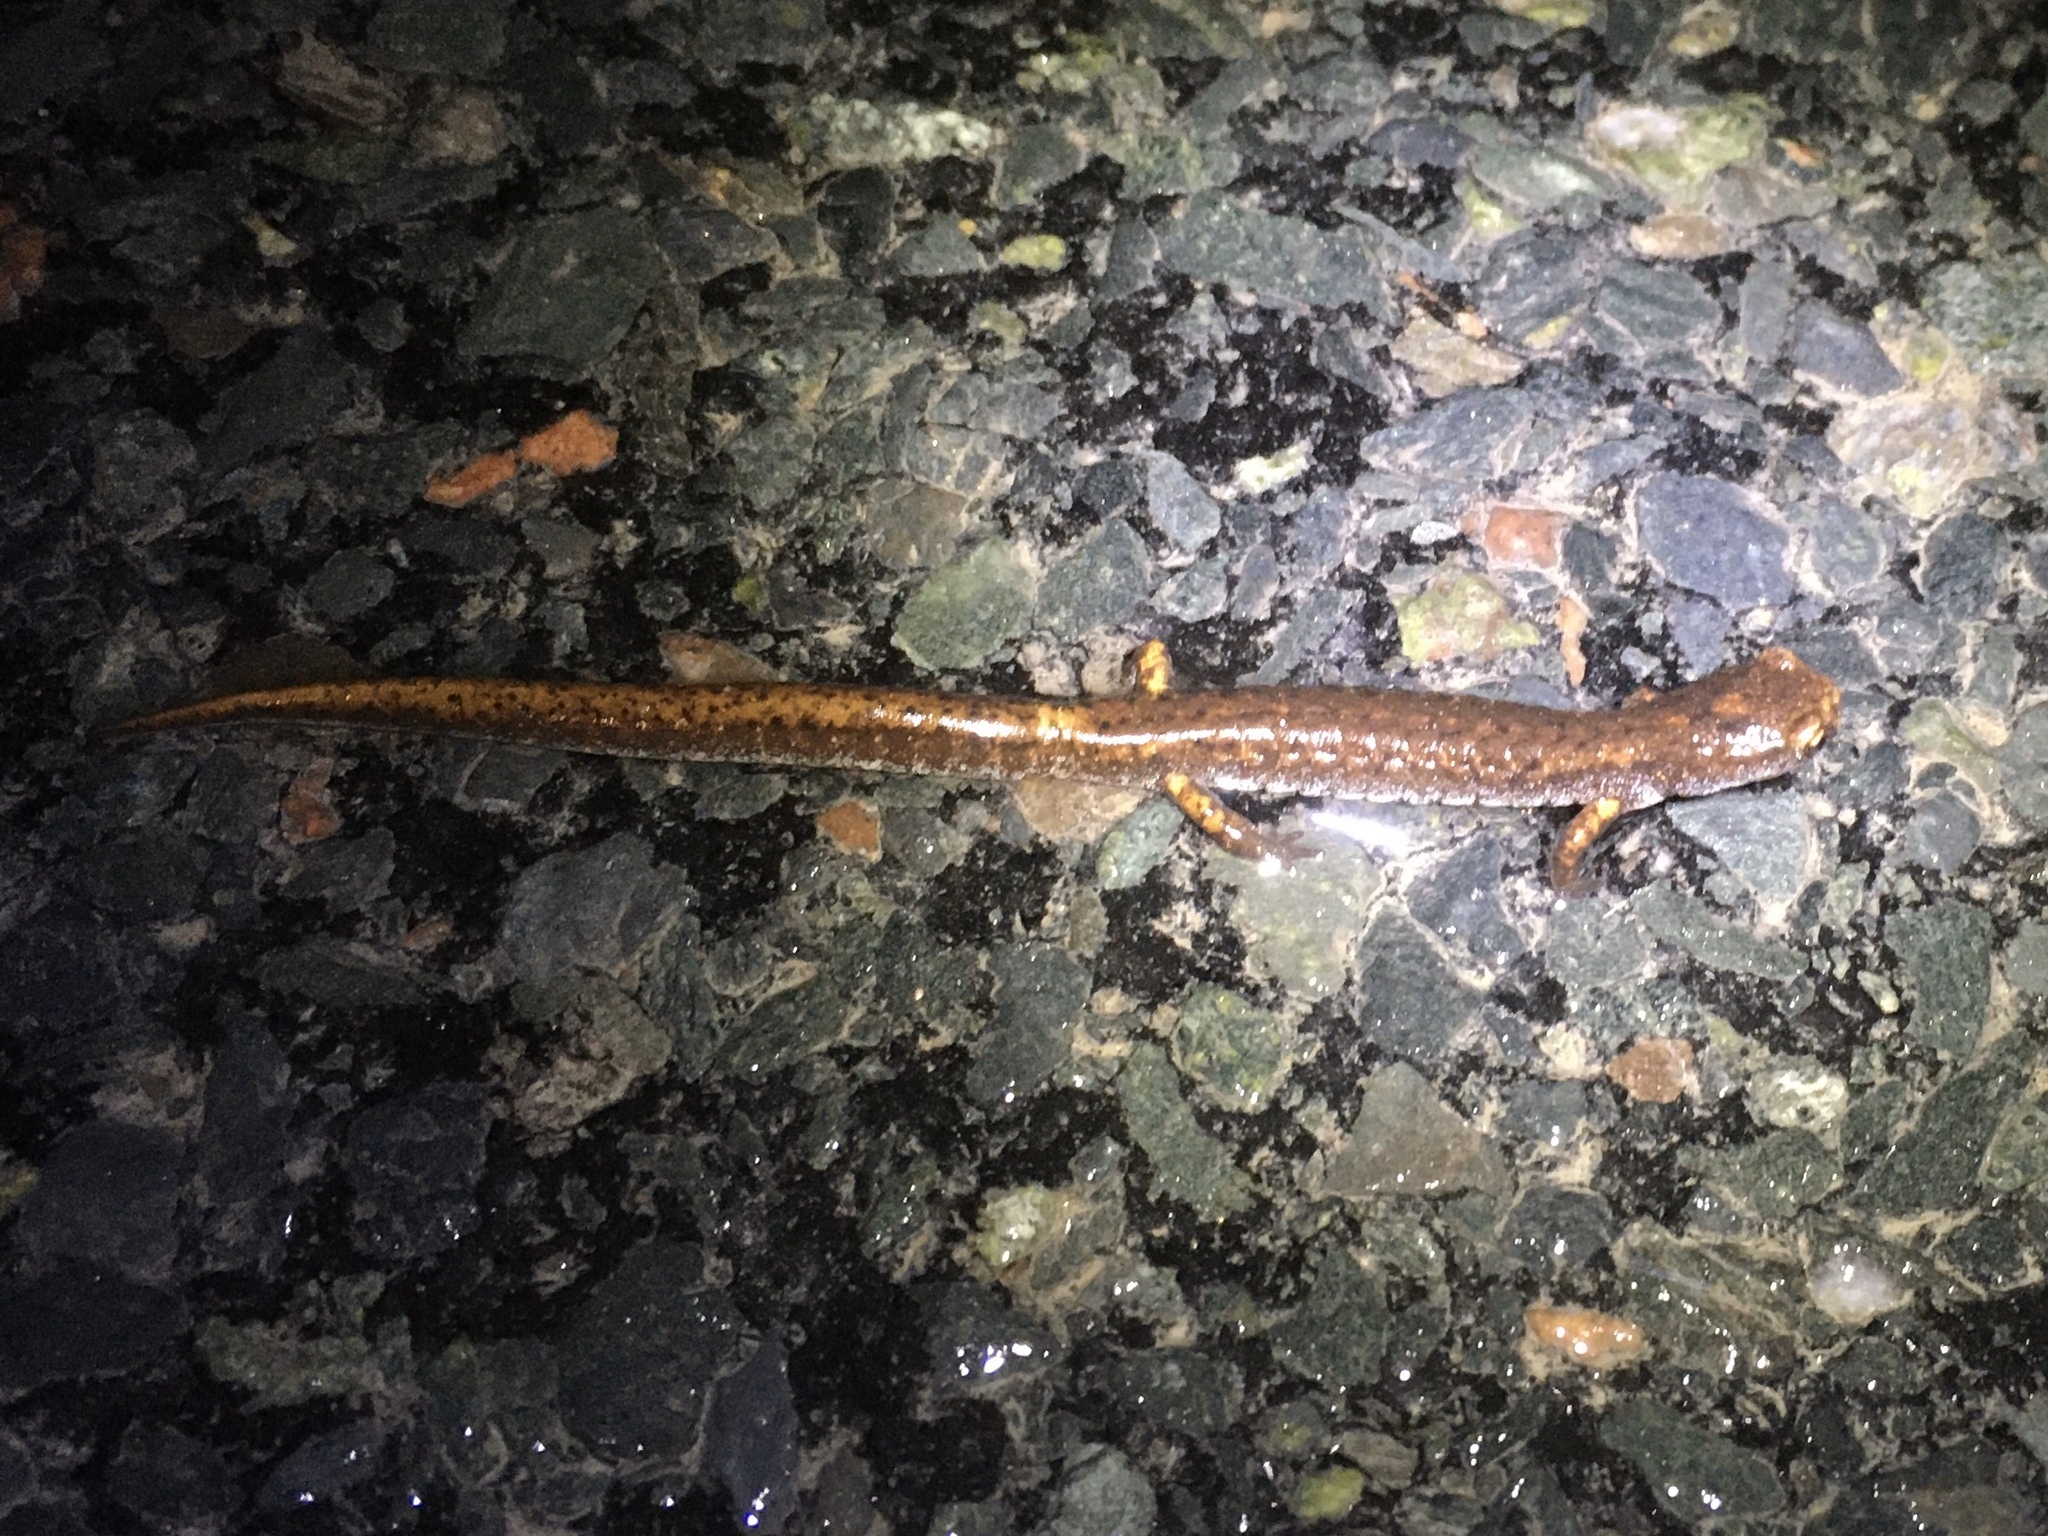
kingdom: Animalia
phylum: Chordata
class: Amphibia
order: Caudata
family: Plethodontidae
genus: Hemidactylium
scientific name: Hemidactylium scutatum
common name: Four-toed salamander
